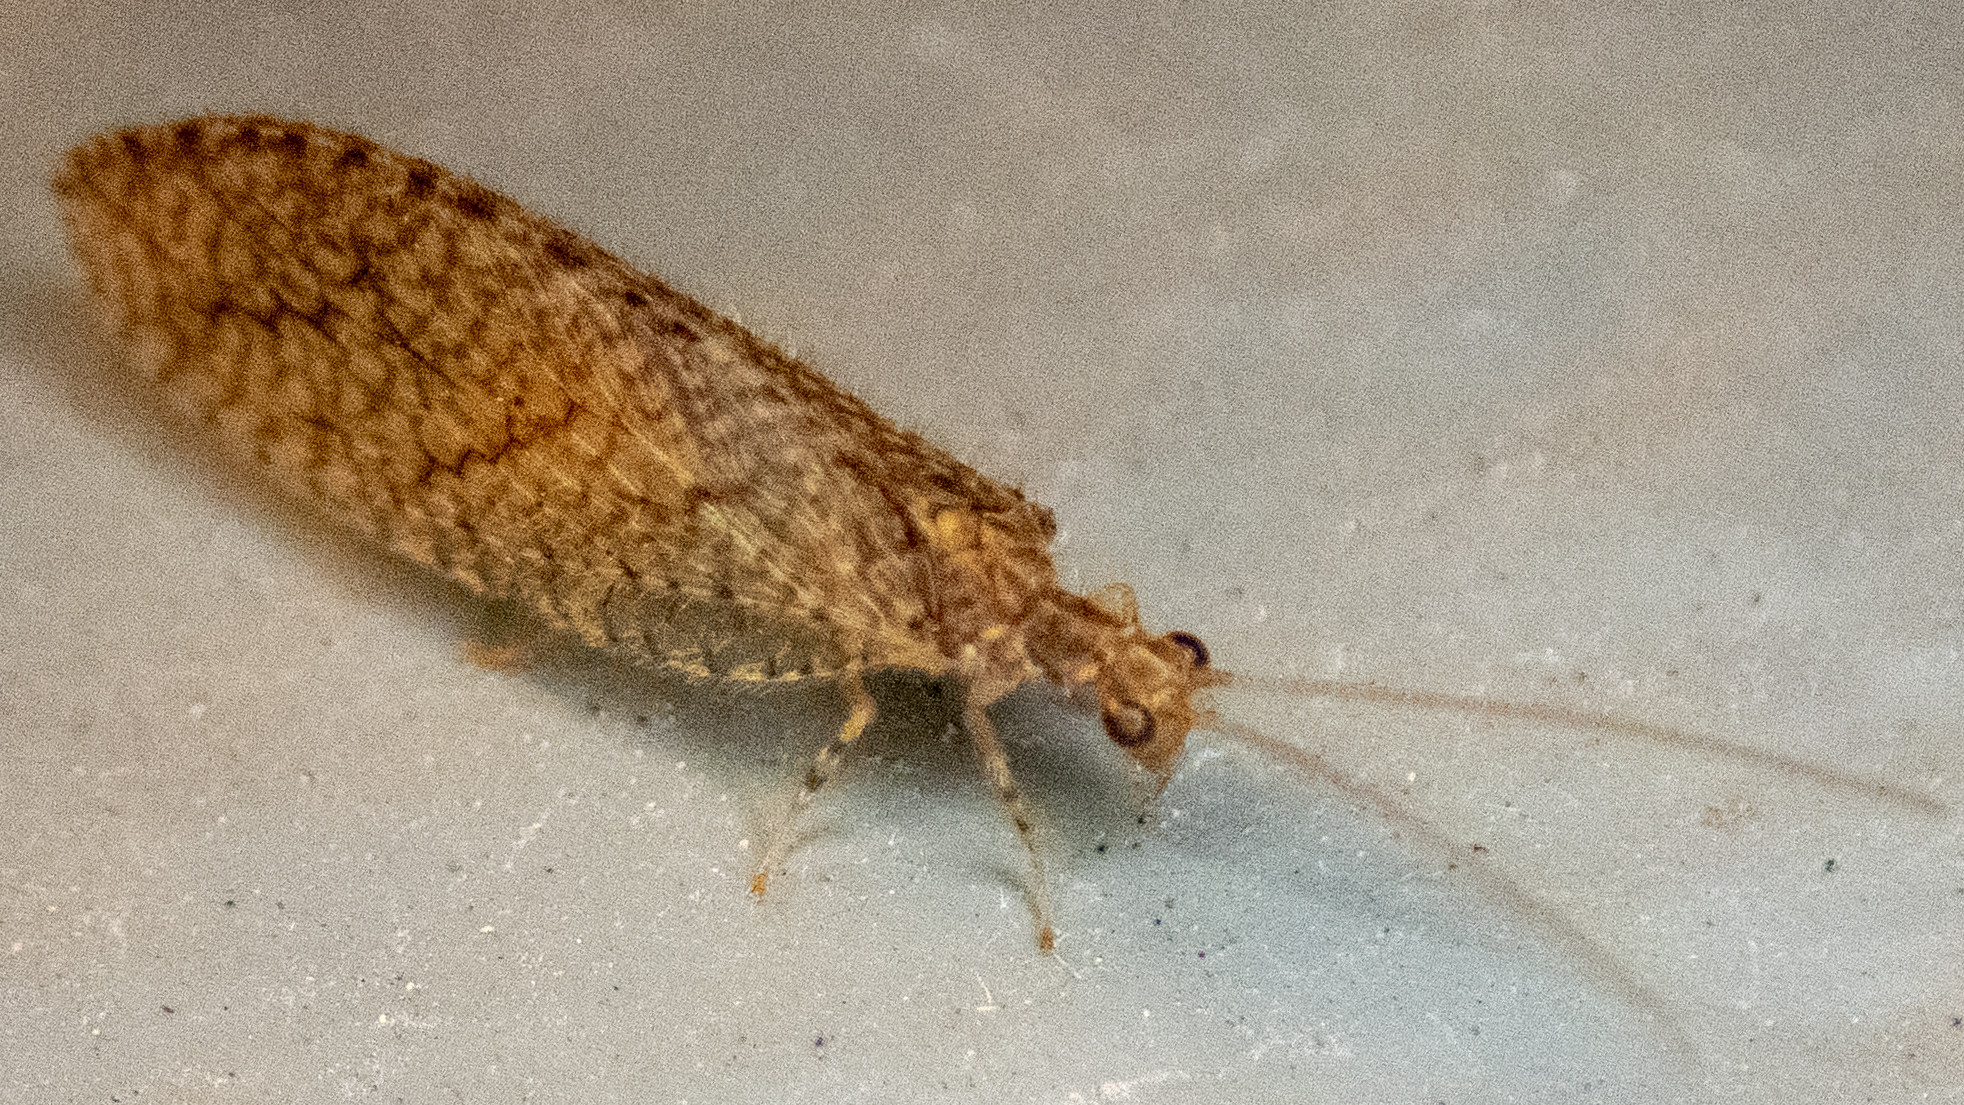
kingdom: Animalia
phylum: Arthropoda
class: Insecta
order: Neuroptera
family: Hemerobiidae
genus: Micromus
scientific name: Micromus posticus
